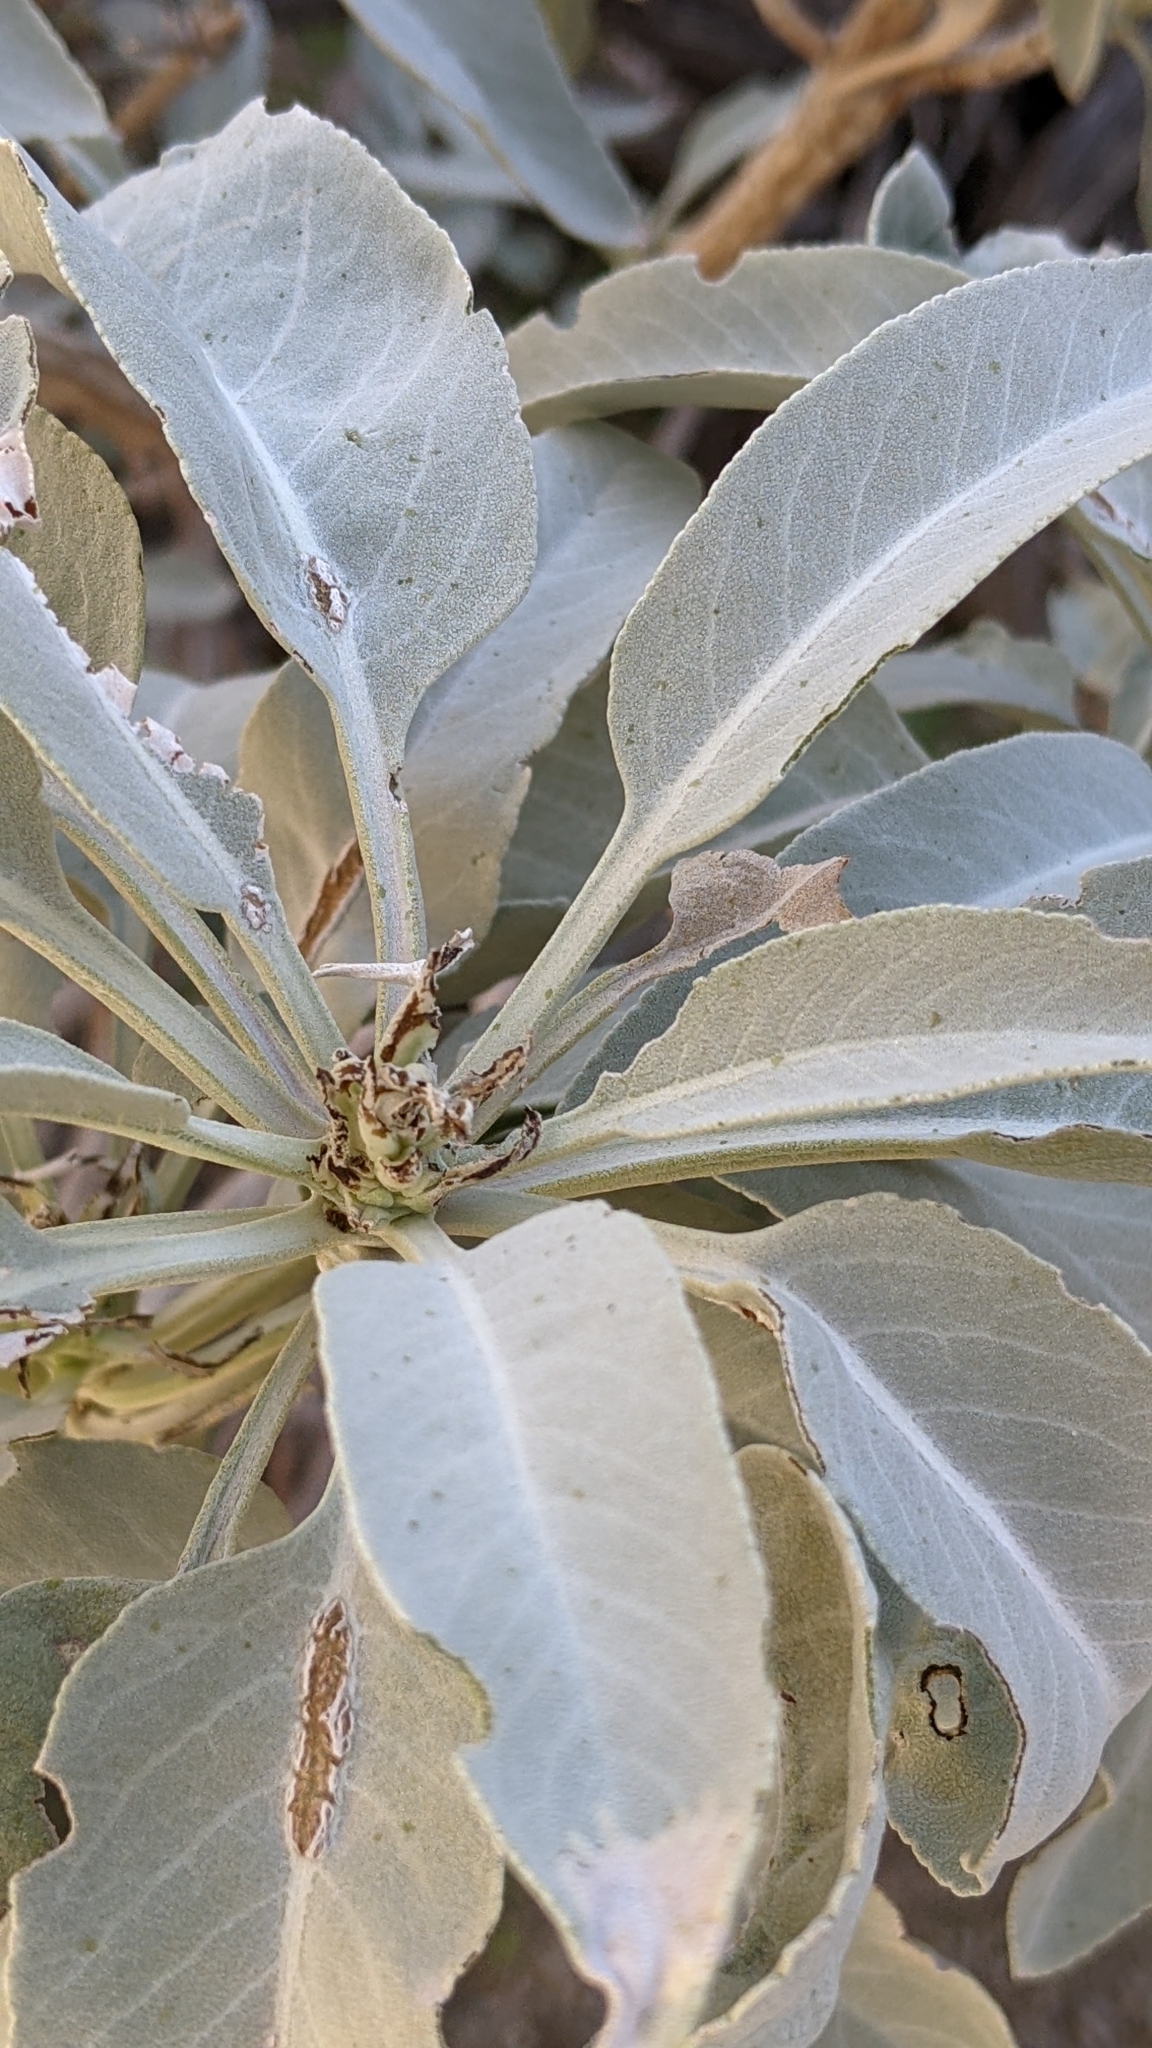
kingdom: Plantae
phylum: Tracheophyta
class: Magnoliopsida
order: Lamiales
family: Lamiaceae
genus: Salvia
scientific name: Salvia apiana
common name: White sage
